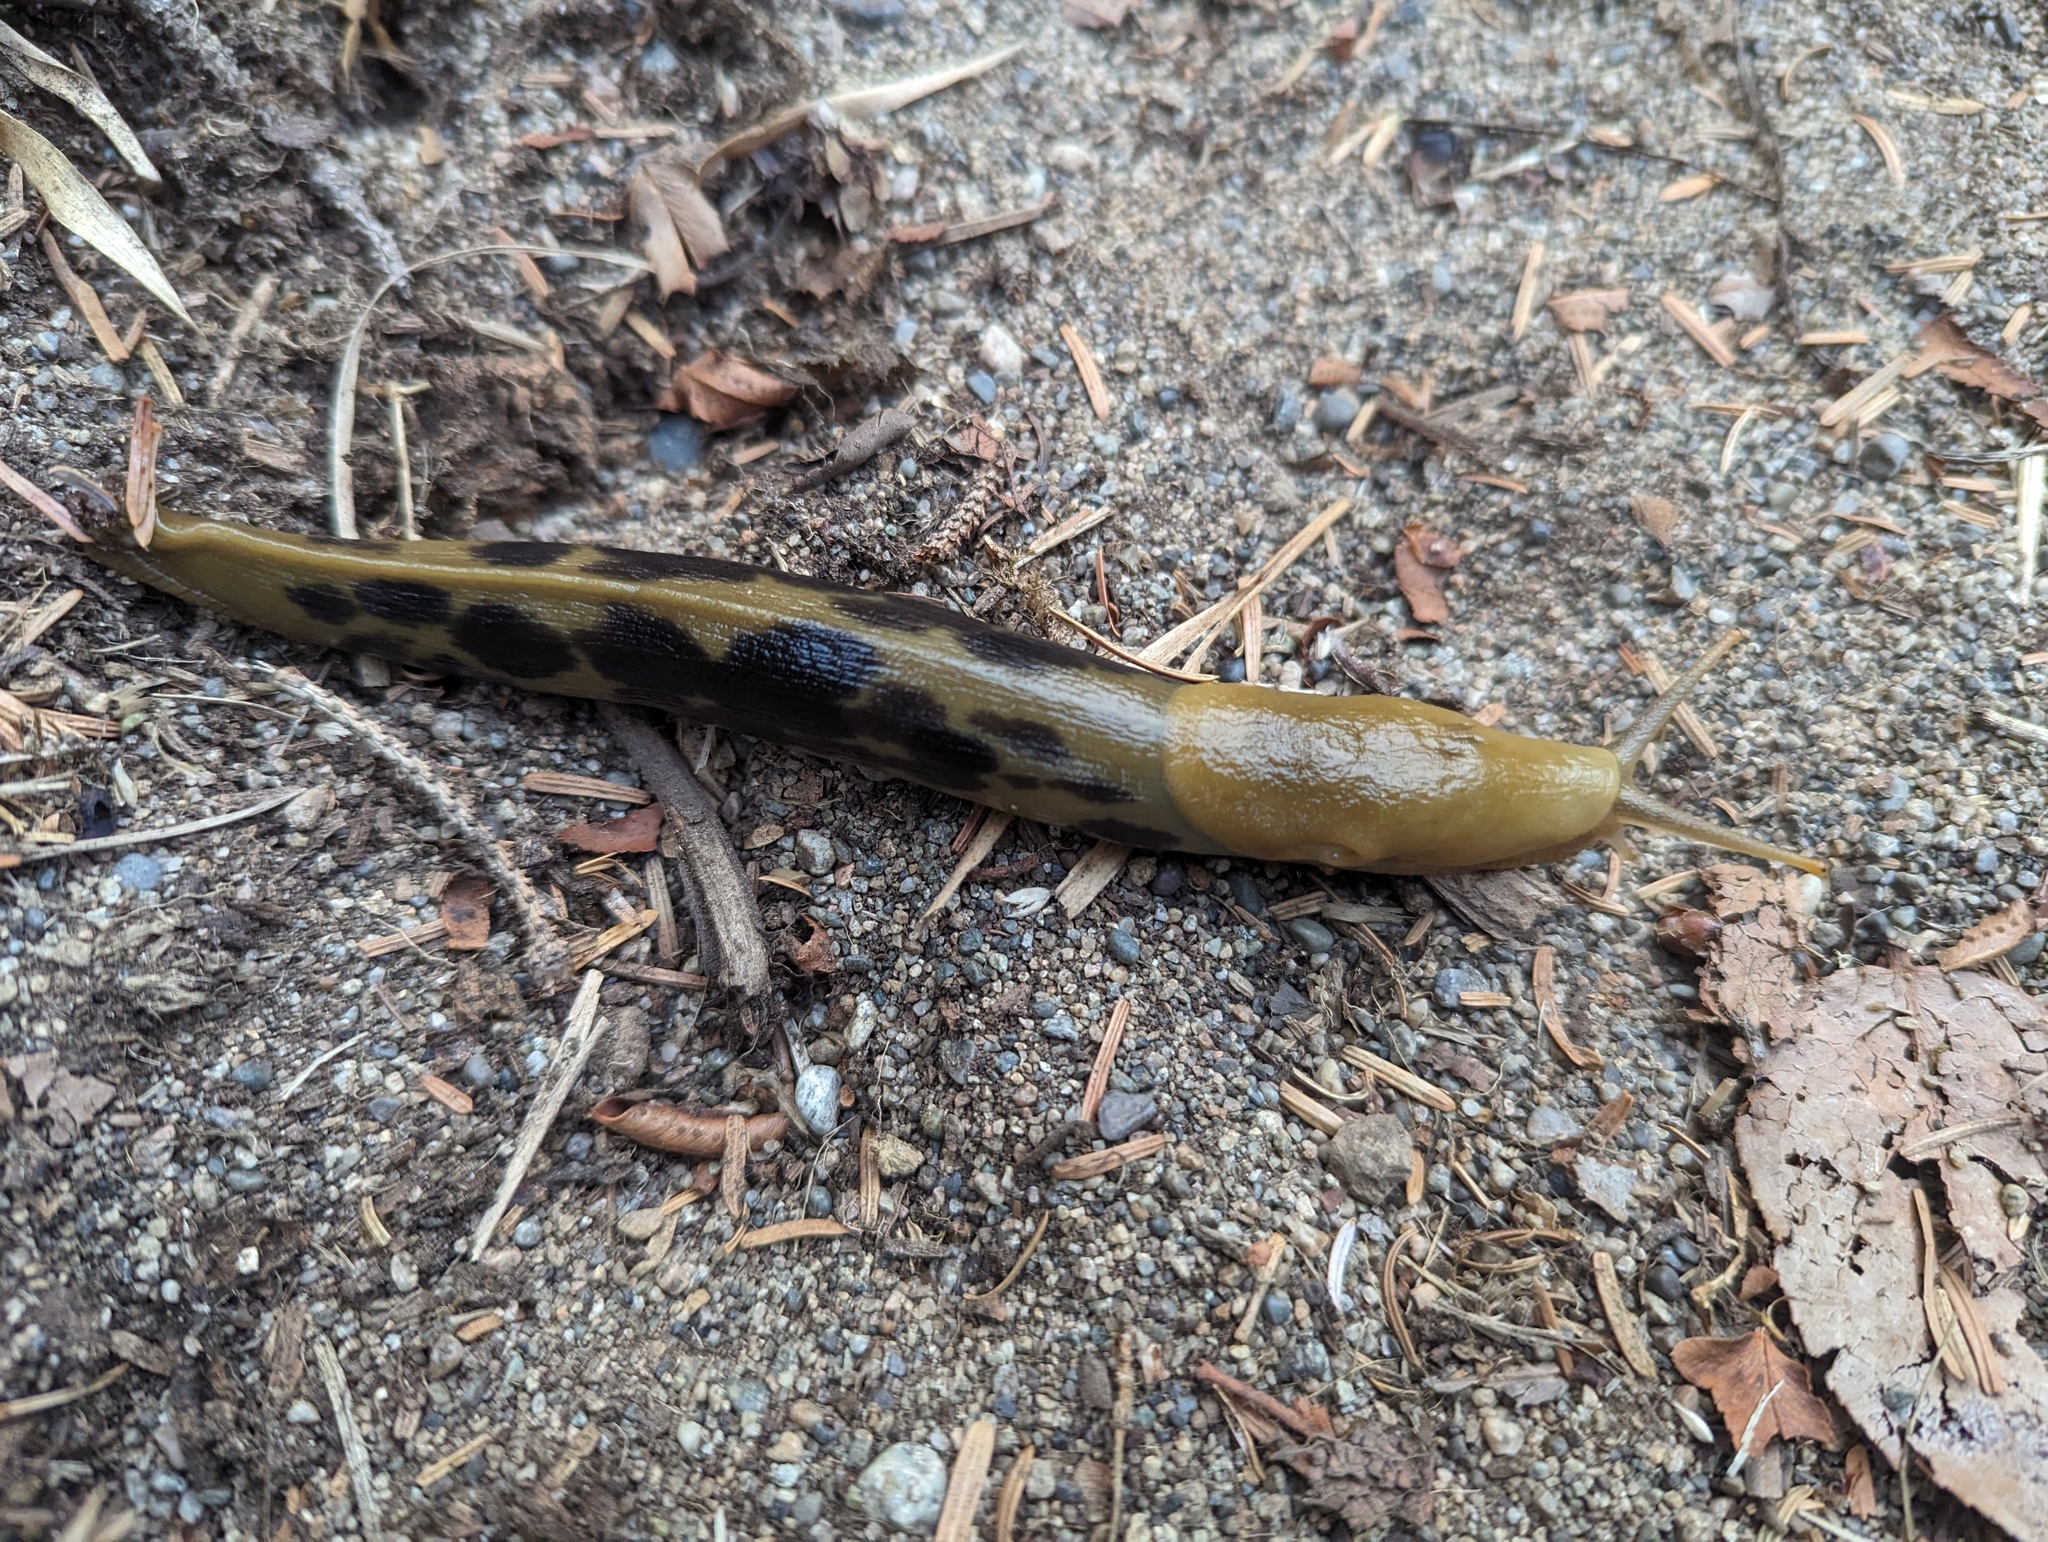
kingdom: Animalia
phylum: Mollusca
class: Gastropoda
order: Stylommatophora
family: Ariolimacidae
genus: Ariolimax
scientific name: Ariolimax columbianus
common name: Pacific banana slug
